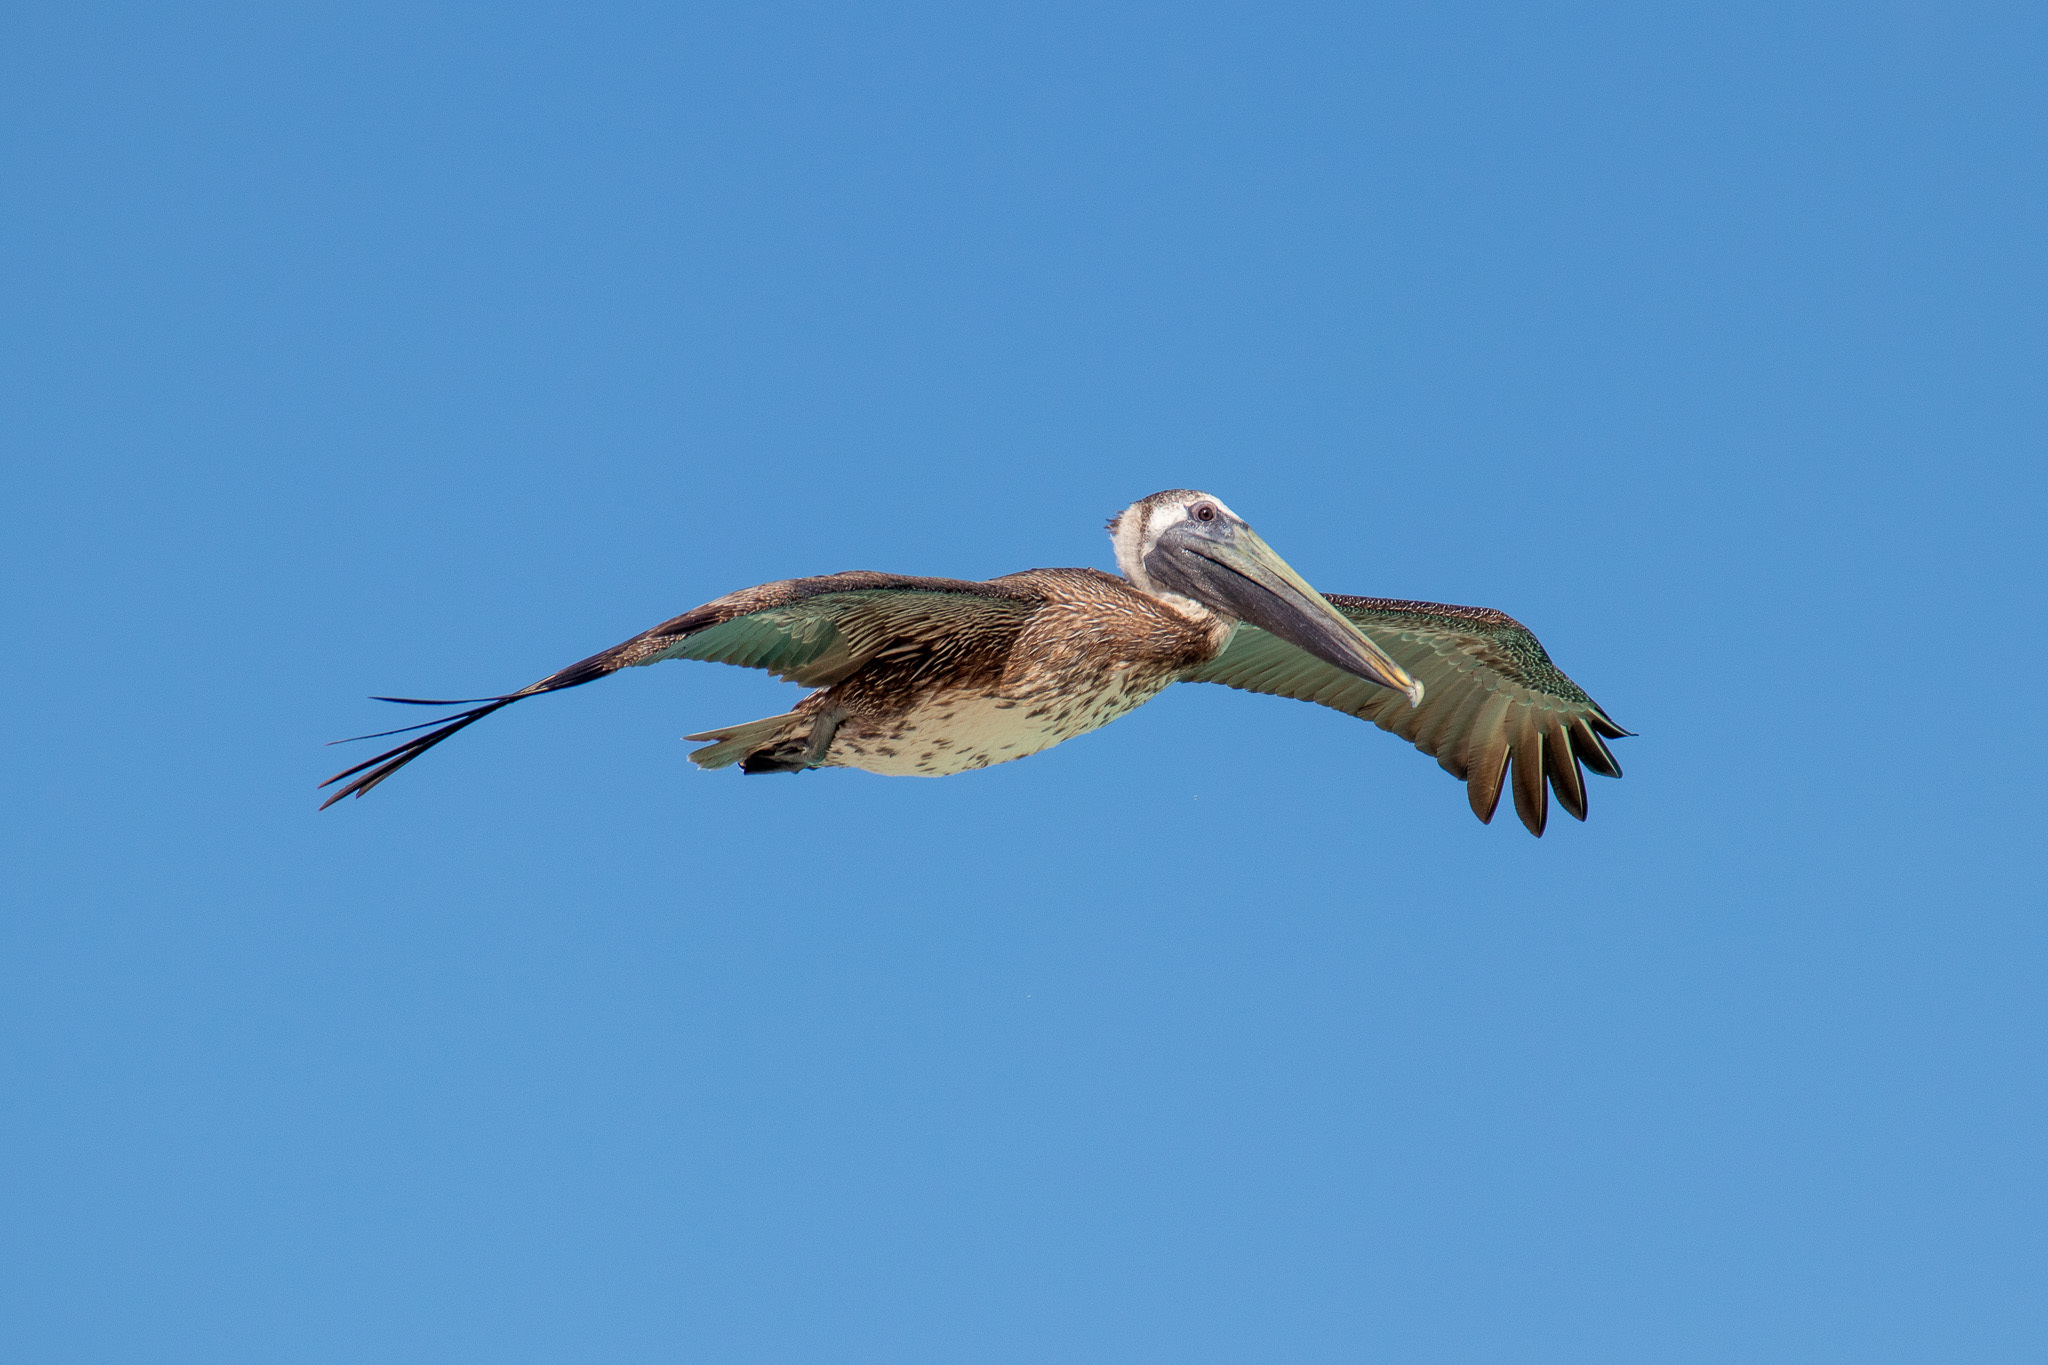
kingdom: Animalia
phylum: Chordata
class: Aves
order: Pelecaniformes
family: Pelecanidae
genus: Pelecanus
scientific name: Pelecanus occidentalis
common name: Brown pelican
